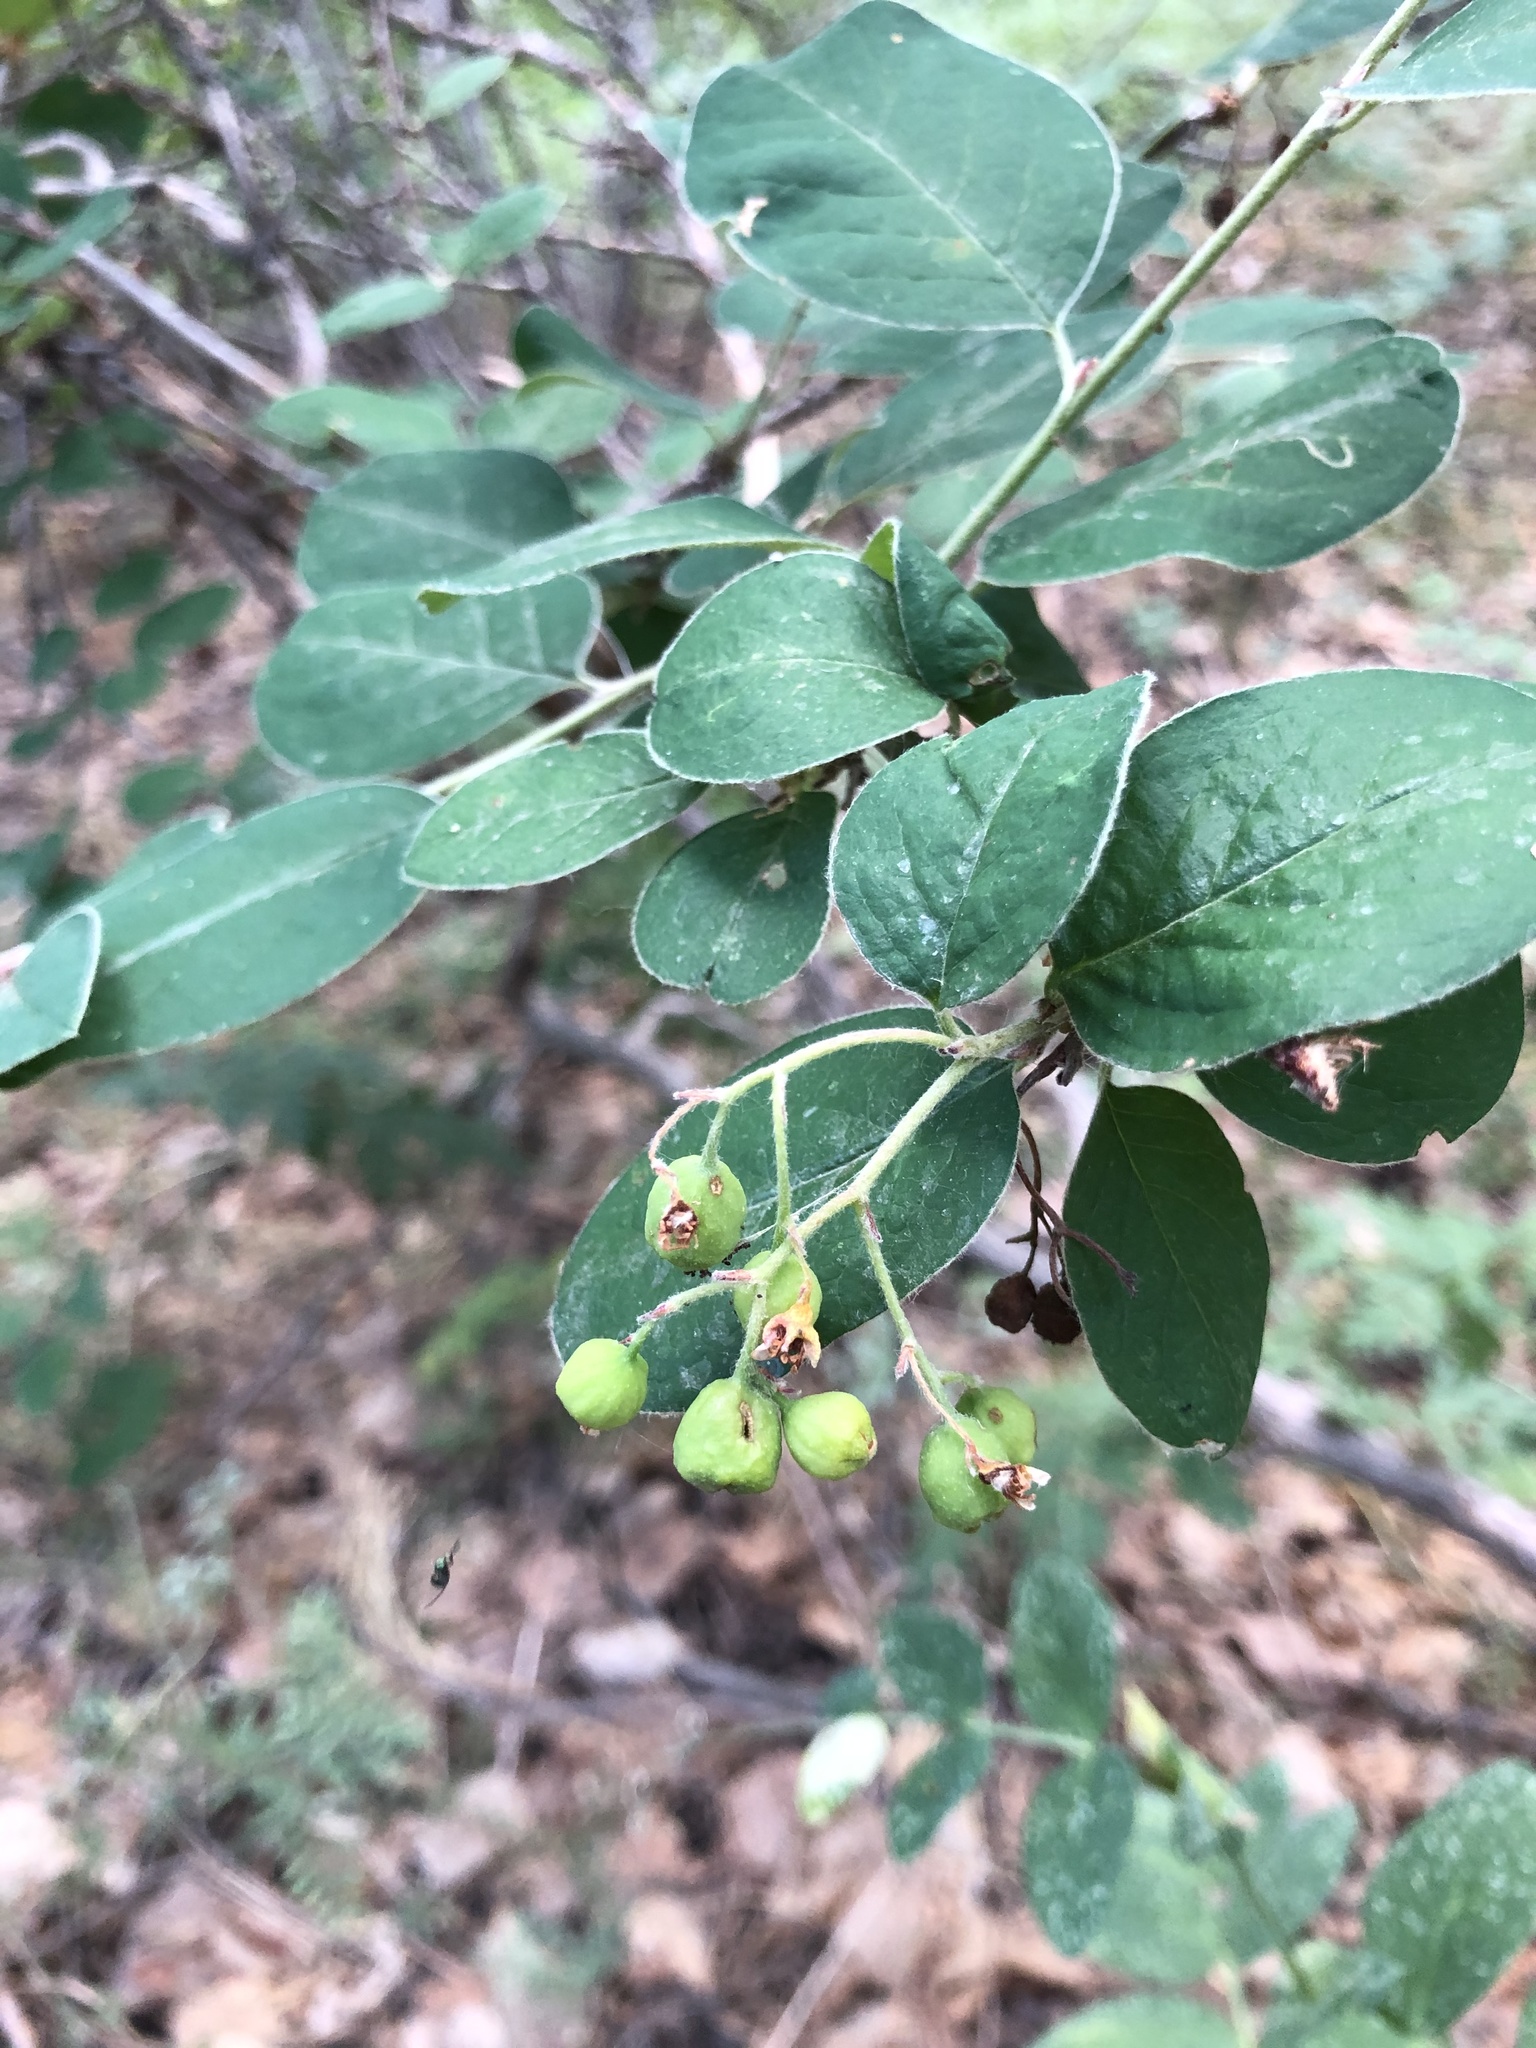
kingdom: Plantae
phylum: Tracheophyta
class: Magnoliopsida
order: Rosales
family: Rosaceae
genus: Cotoneaster
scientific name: Cotoneaster melanocarpus
